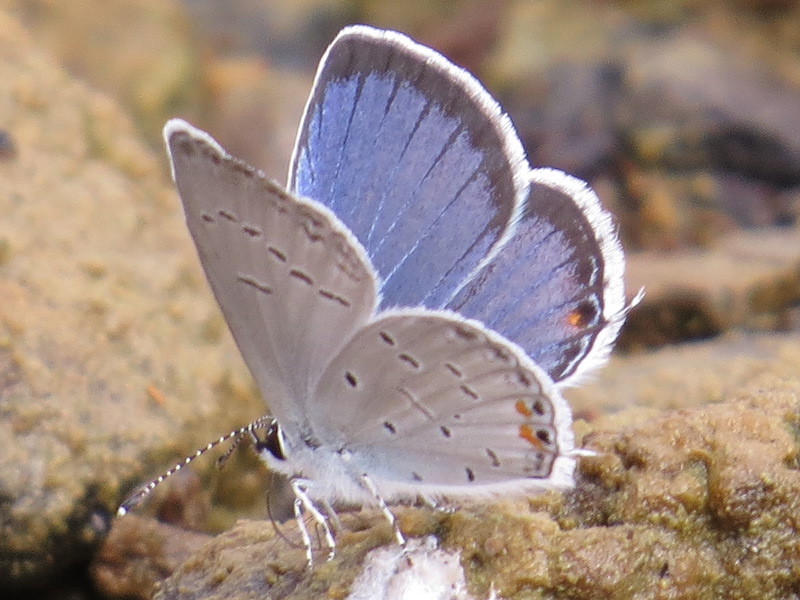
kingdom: Animalia
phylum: Arthropoda
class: Insecta
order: Lepidoptera
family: Lycaenidae
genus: Elkalyce
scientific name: Elkalyce comyntas
